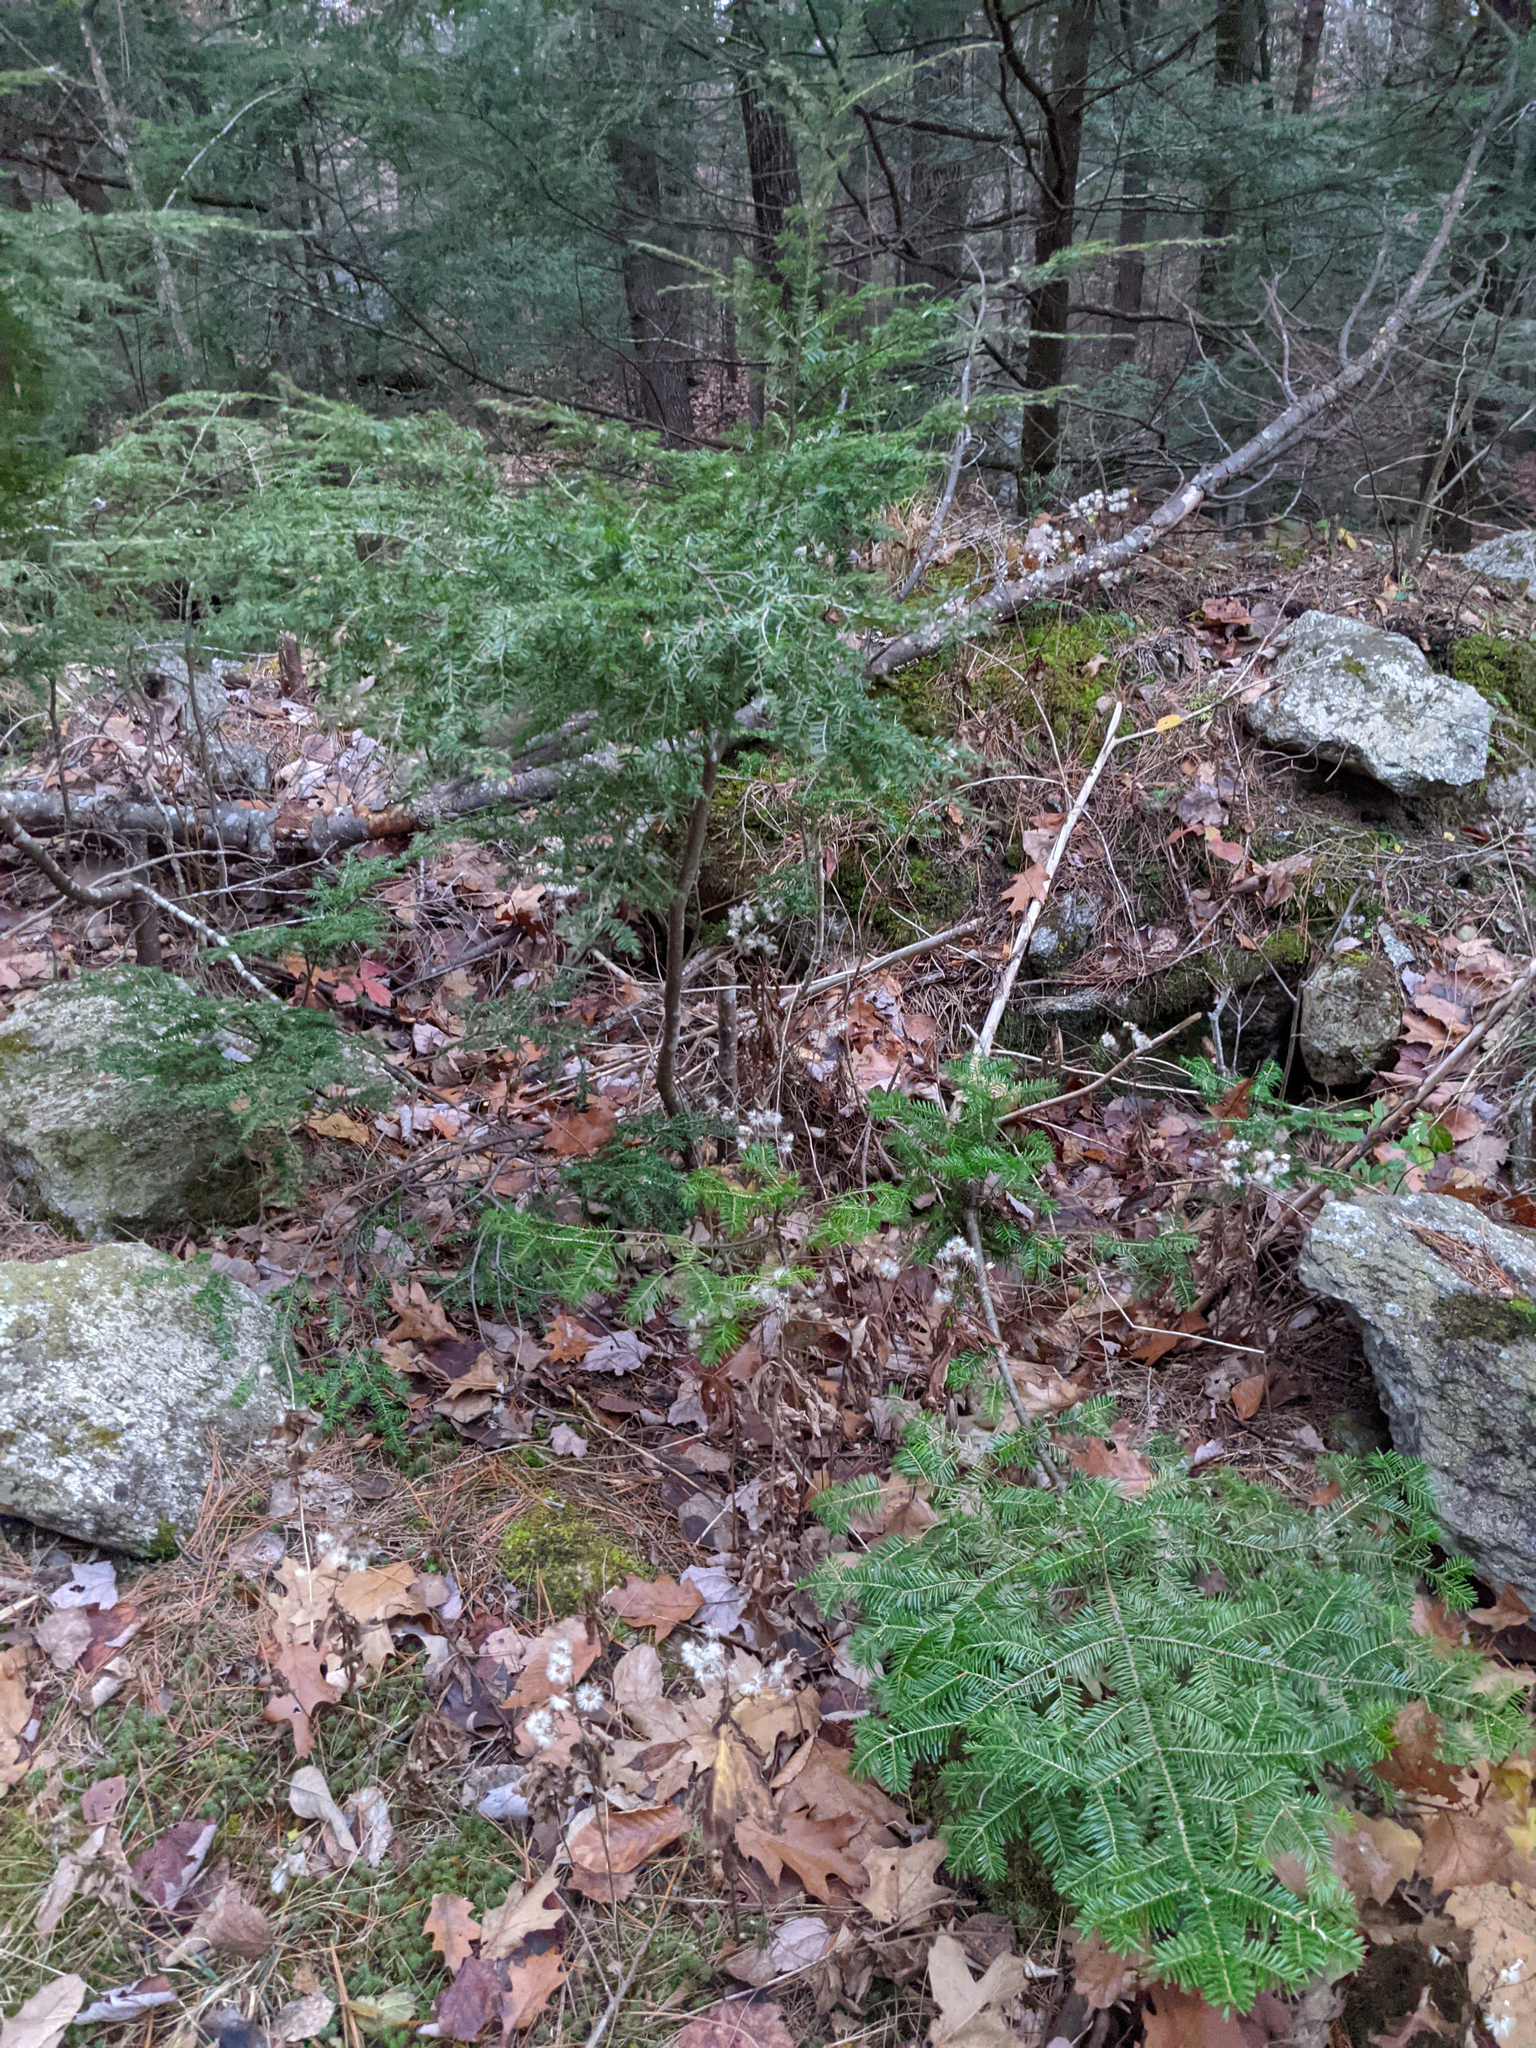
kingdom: Plantae
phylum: Tracheophyta
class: Pinopsida
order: Pinales
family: Pinaceae
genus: Abies
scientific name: Abies balsamea
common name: Balsam fir
